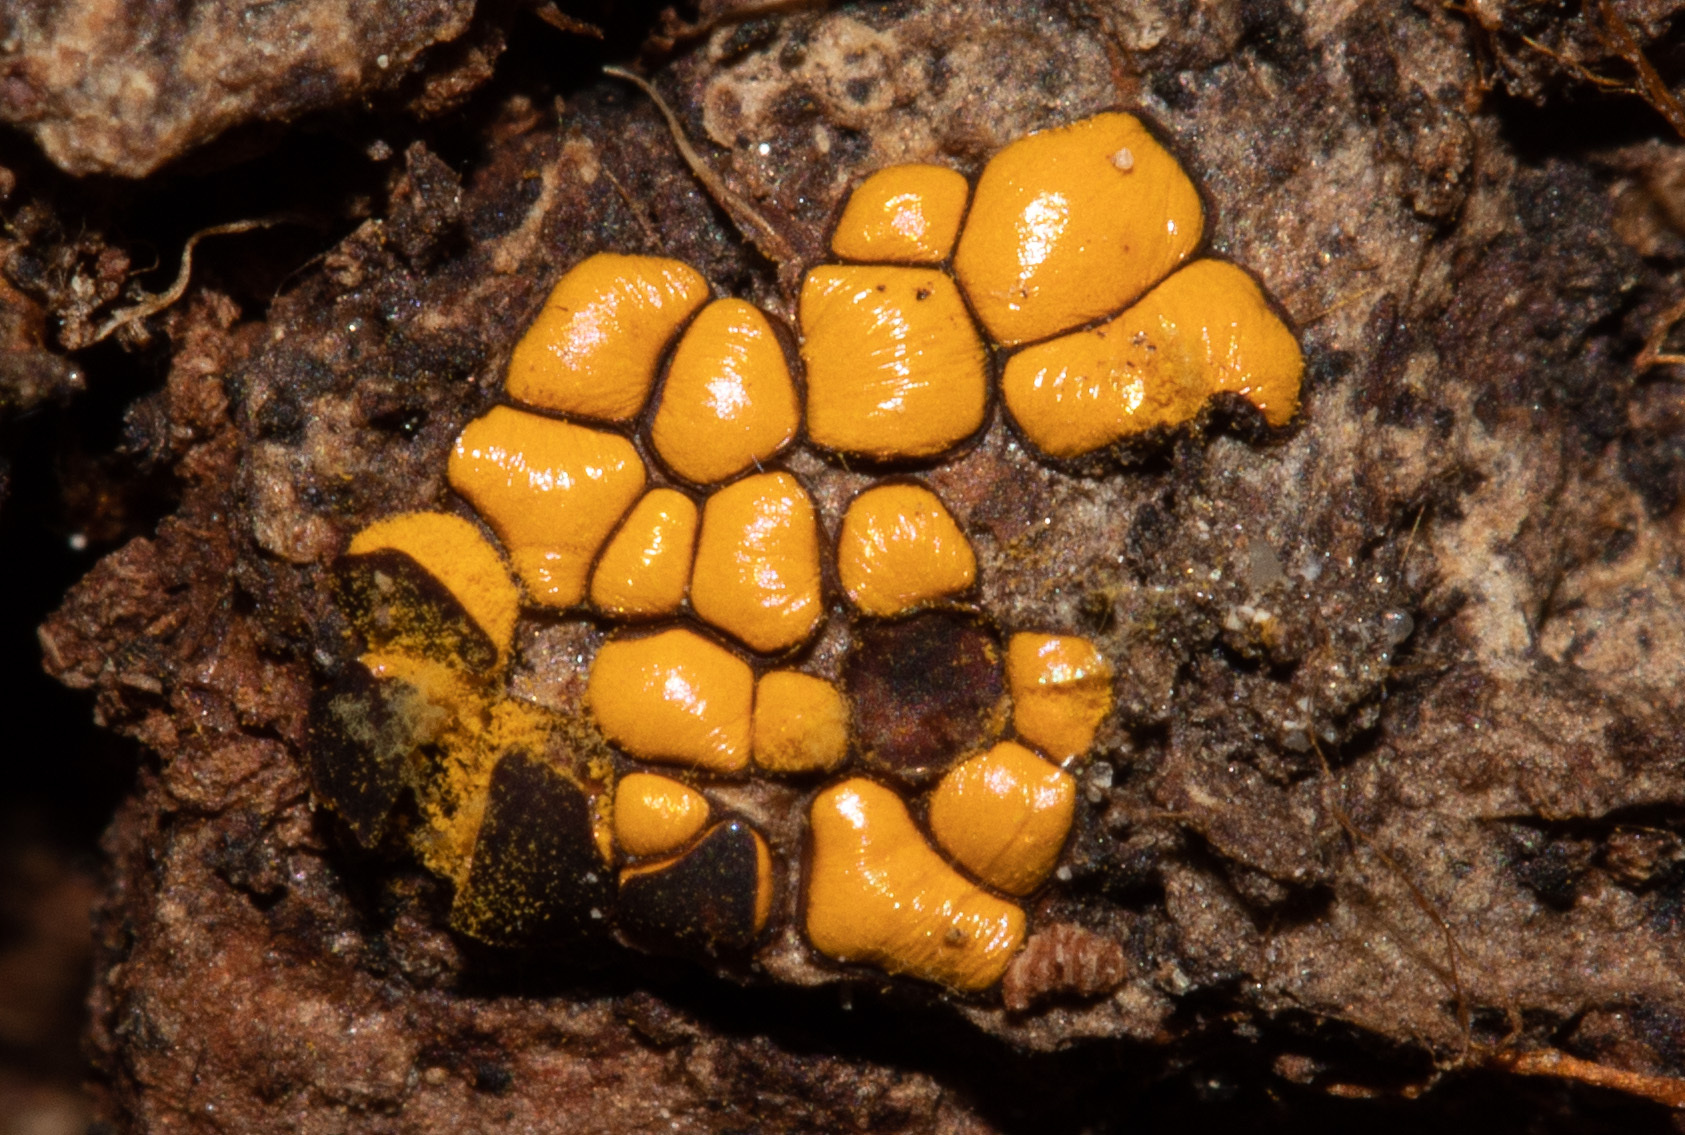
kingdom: Protozoa
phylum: Mycetozoa
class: Myxomycetes
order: Trichiales
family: Trichiaceae
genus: Perichaena
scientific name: Perichaena depressa
